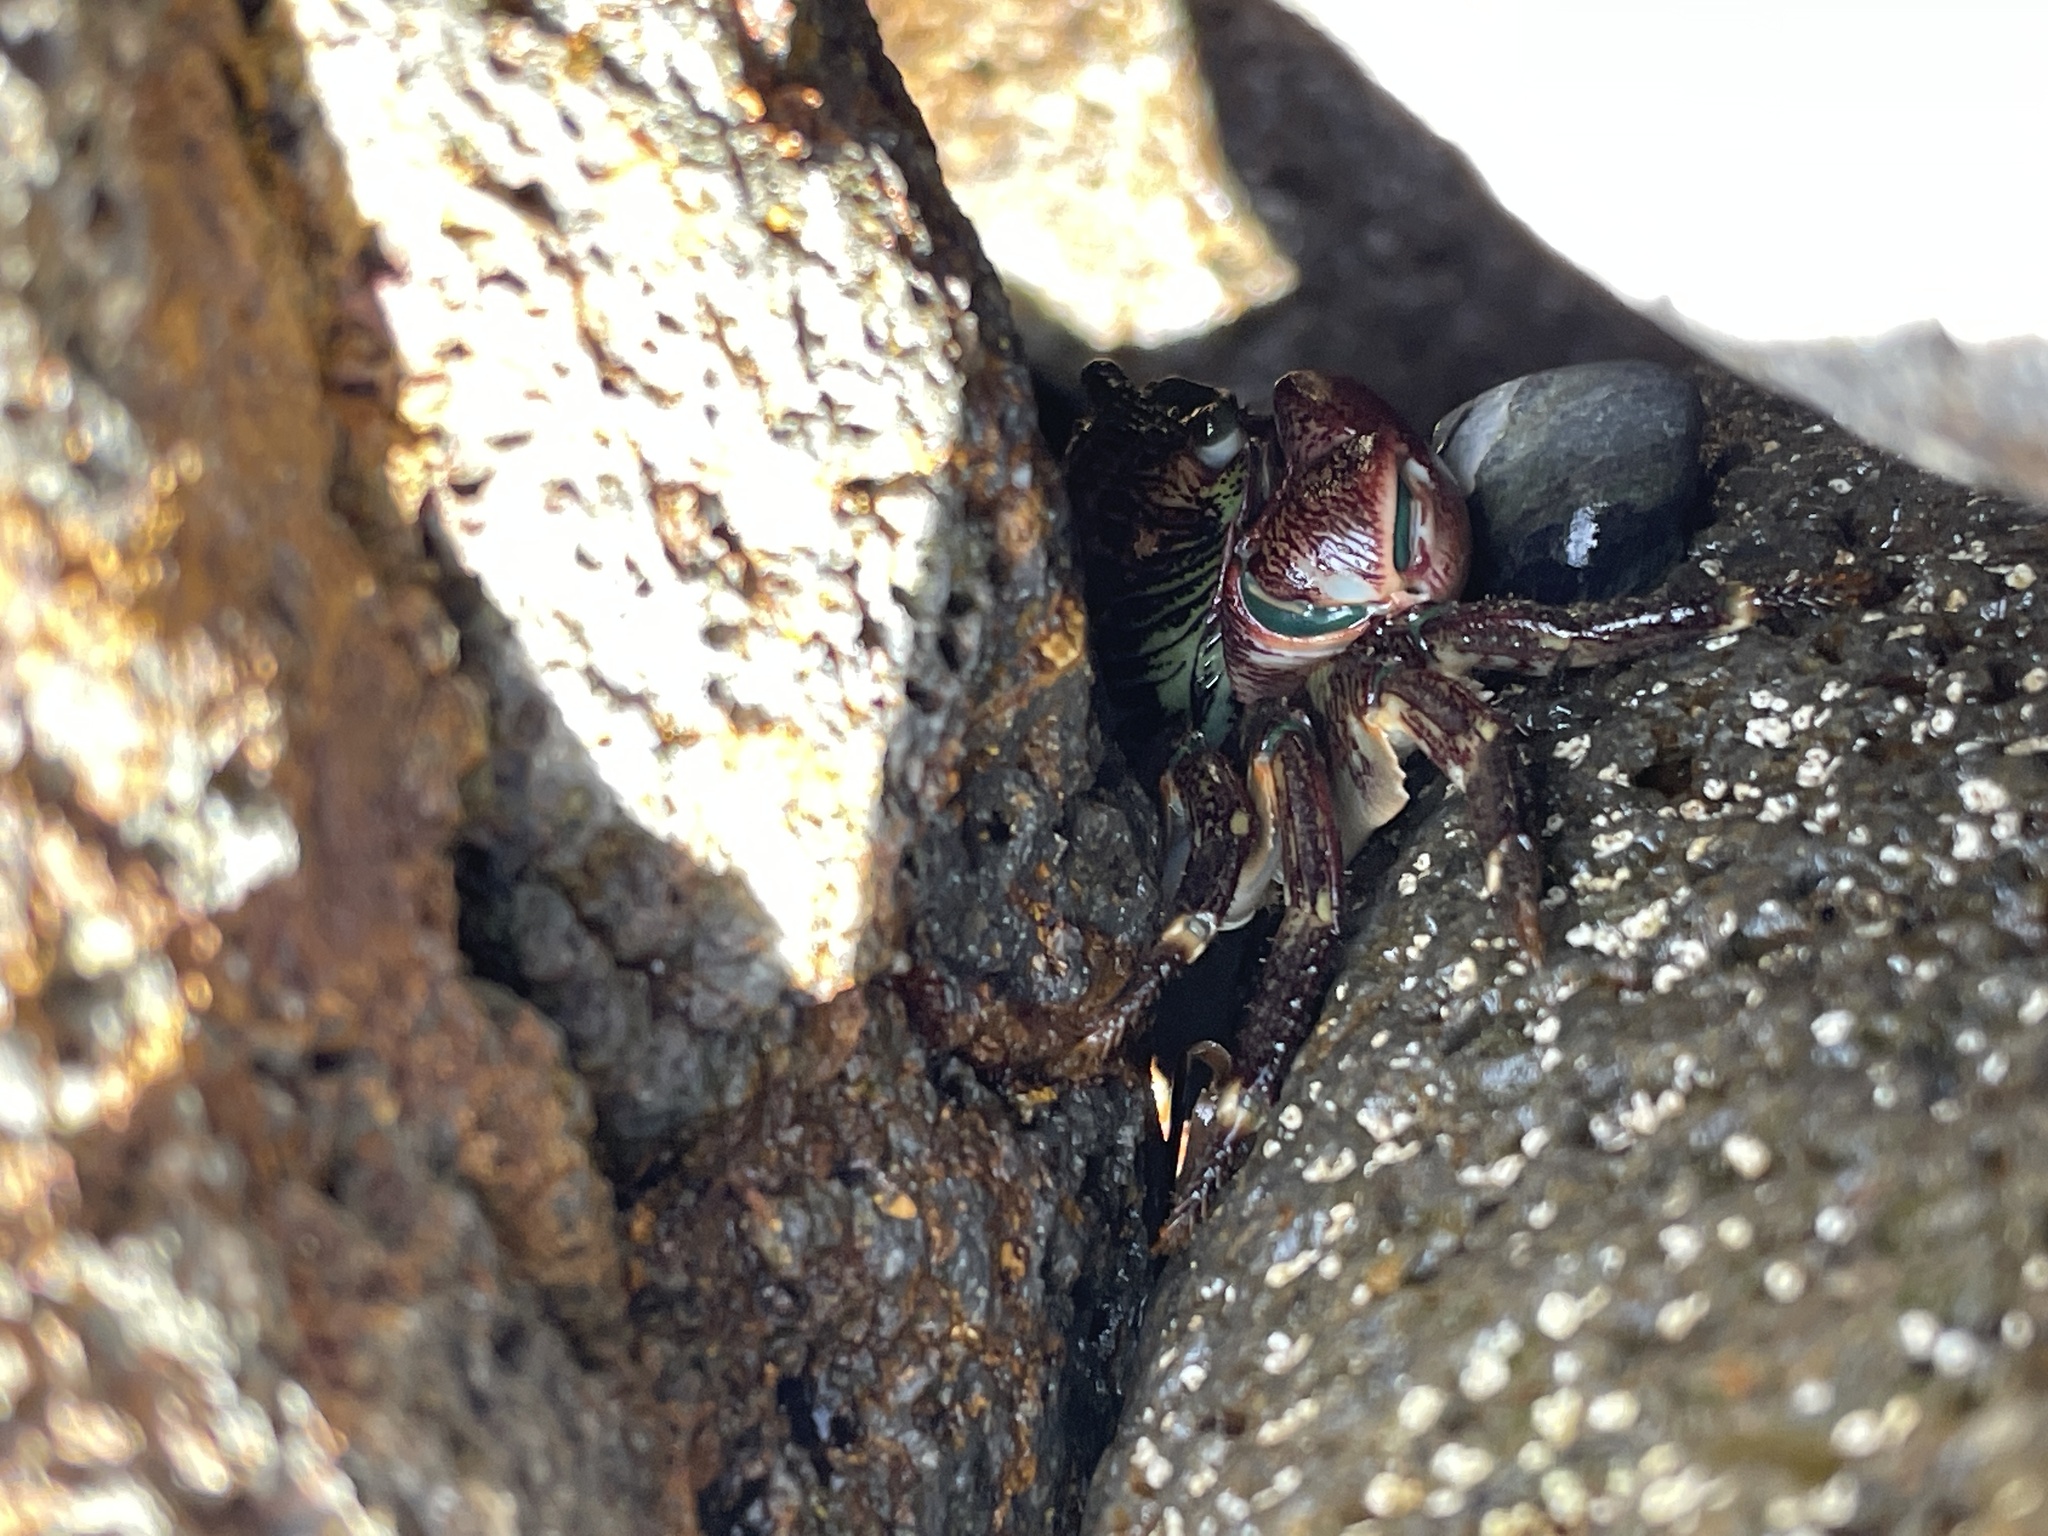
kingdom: Animalia
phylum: Arthropoda
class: Malacostraca
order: Decapoda
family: Grapsidae
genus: Pachygrapsus
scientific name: Pachygrapsus crassipes
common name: Striped shore crab
